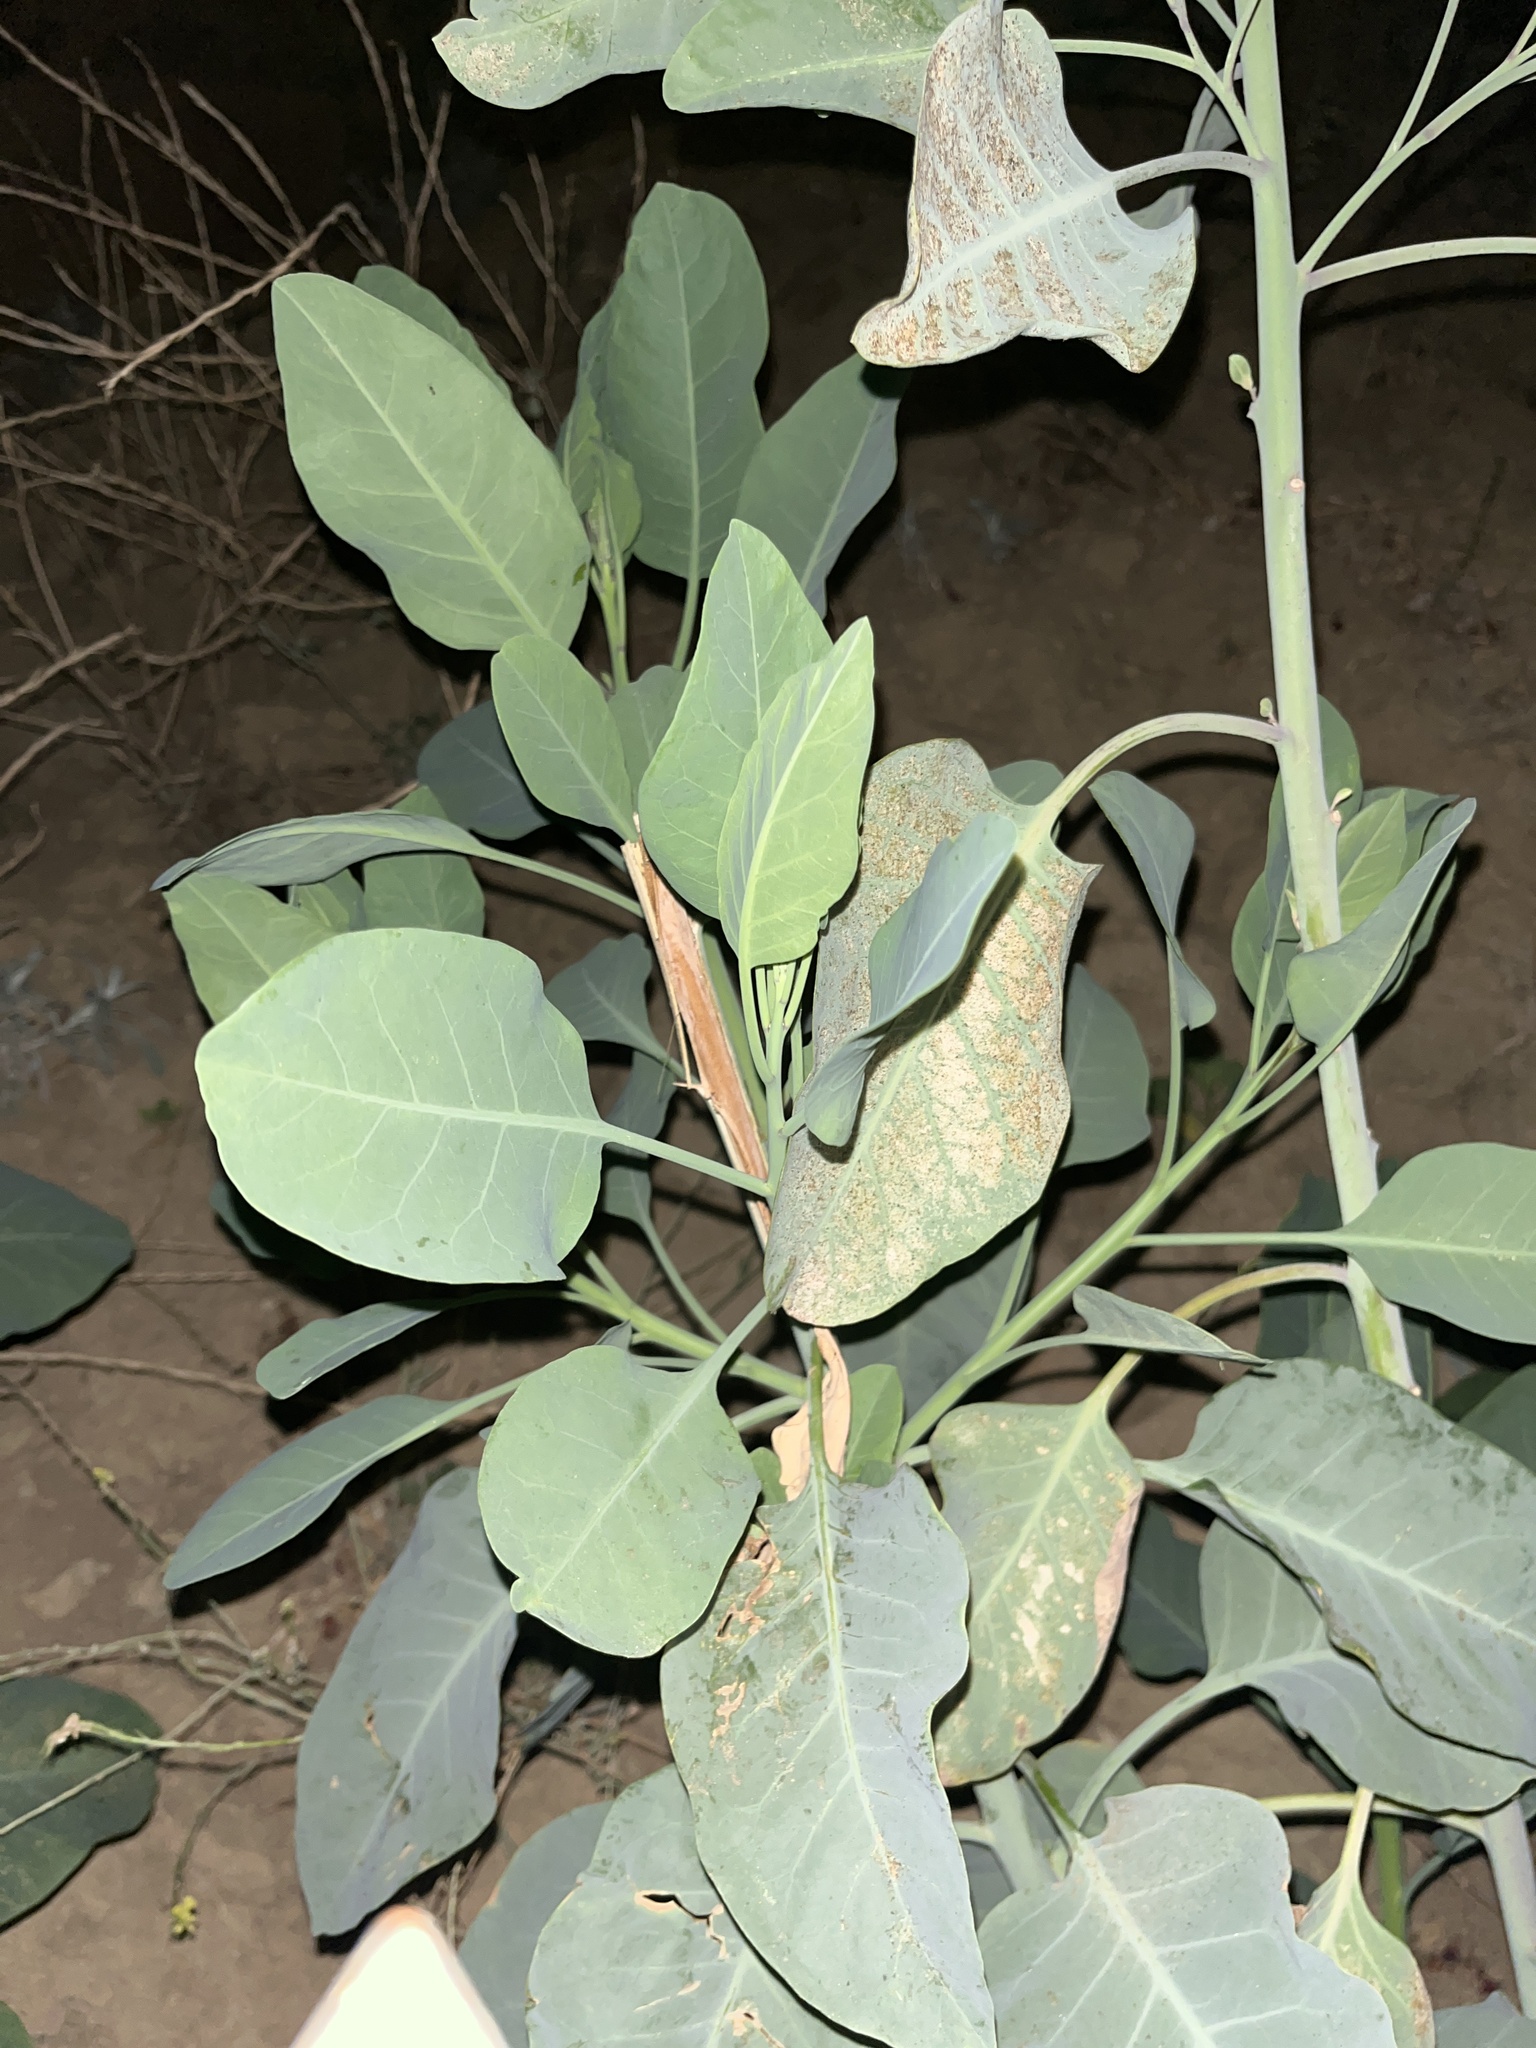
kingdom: Plantae
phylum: Tracheophyta
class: Magnoliopsida
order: Solanales
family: Solanaceae
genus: Nicotiana
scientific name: Nicotiana glauca
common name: Tree tobacco
